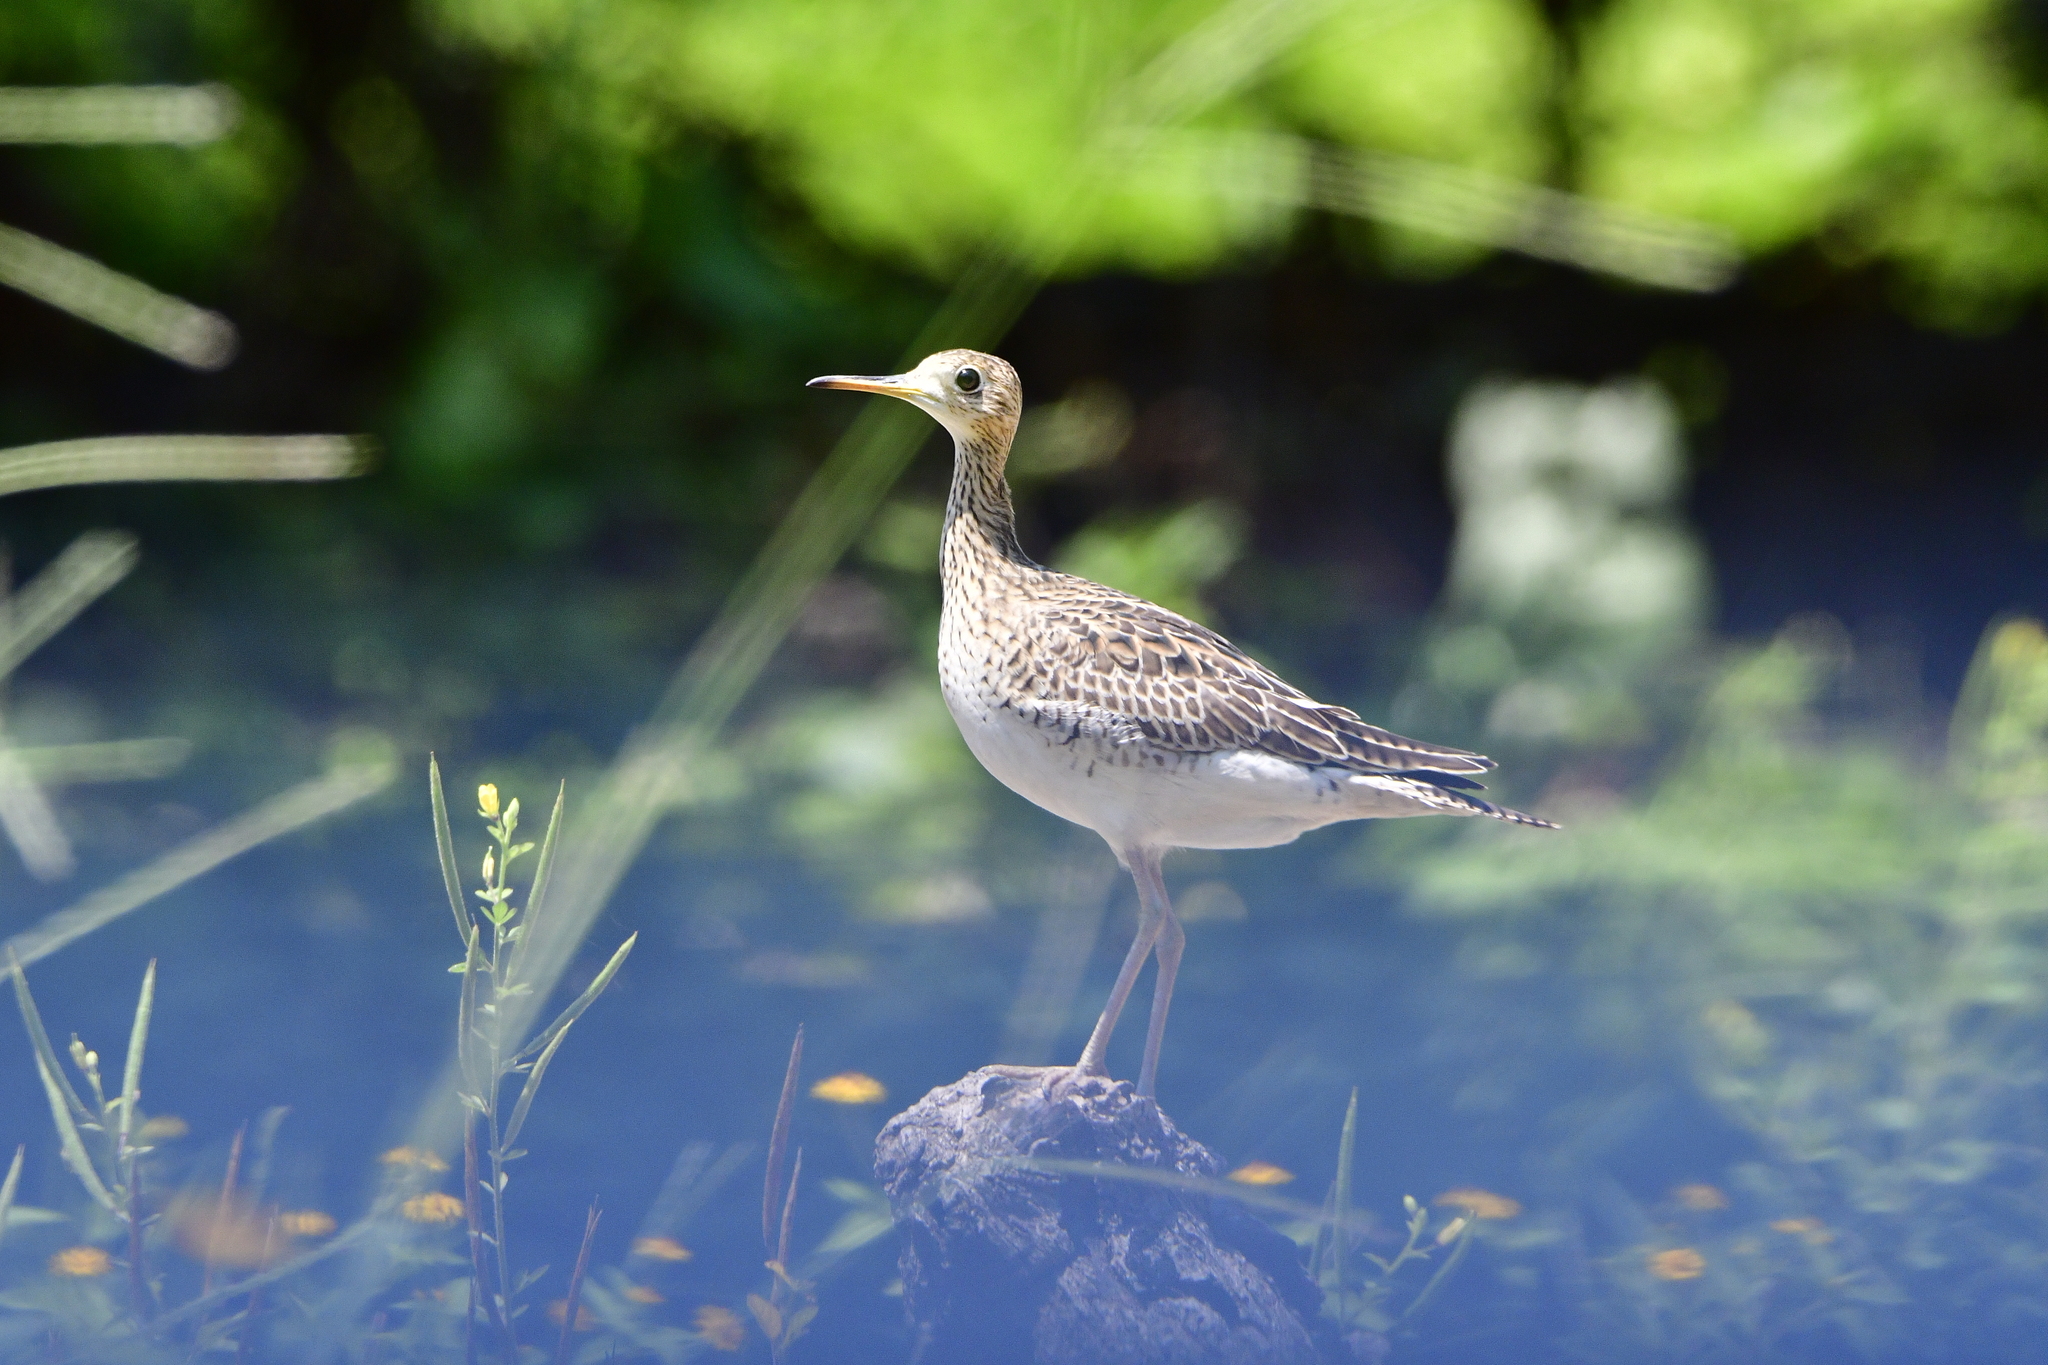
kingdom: Animalia
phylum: Chordata
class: Aves
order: Charadriiformes
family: Scolopacidae
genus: Bartramia
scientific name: Bartramia longicauda
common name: Upland sandpiper
